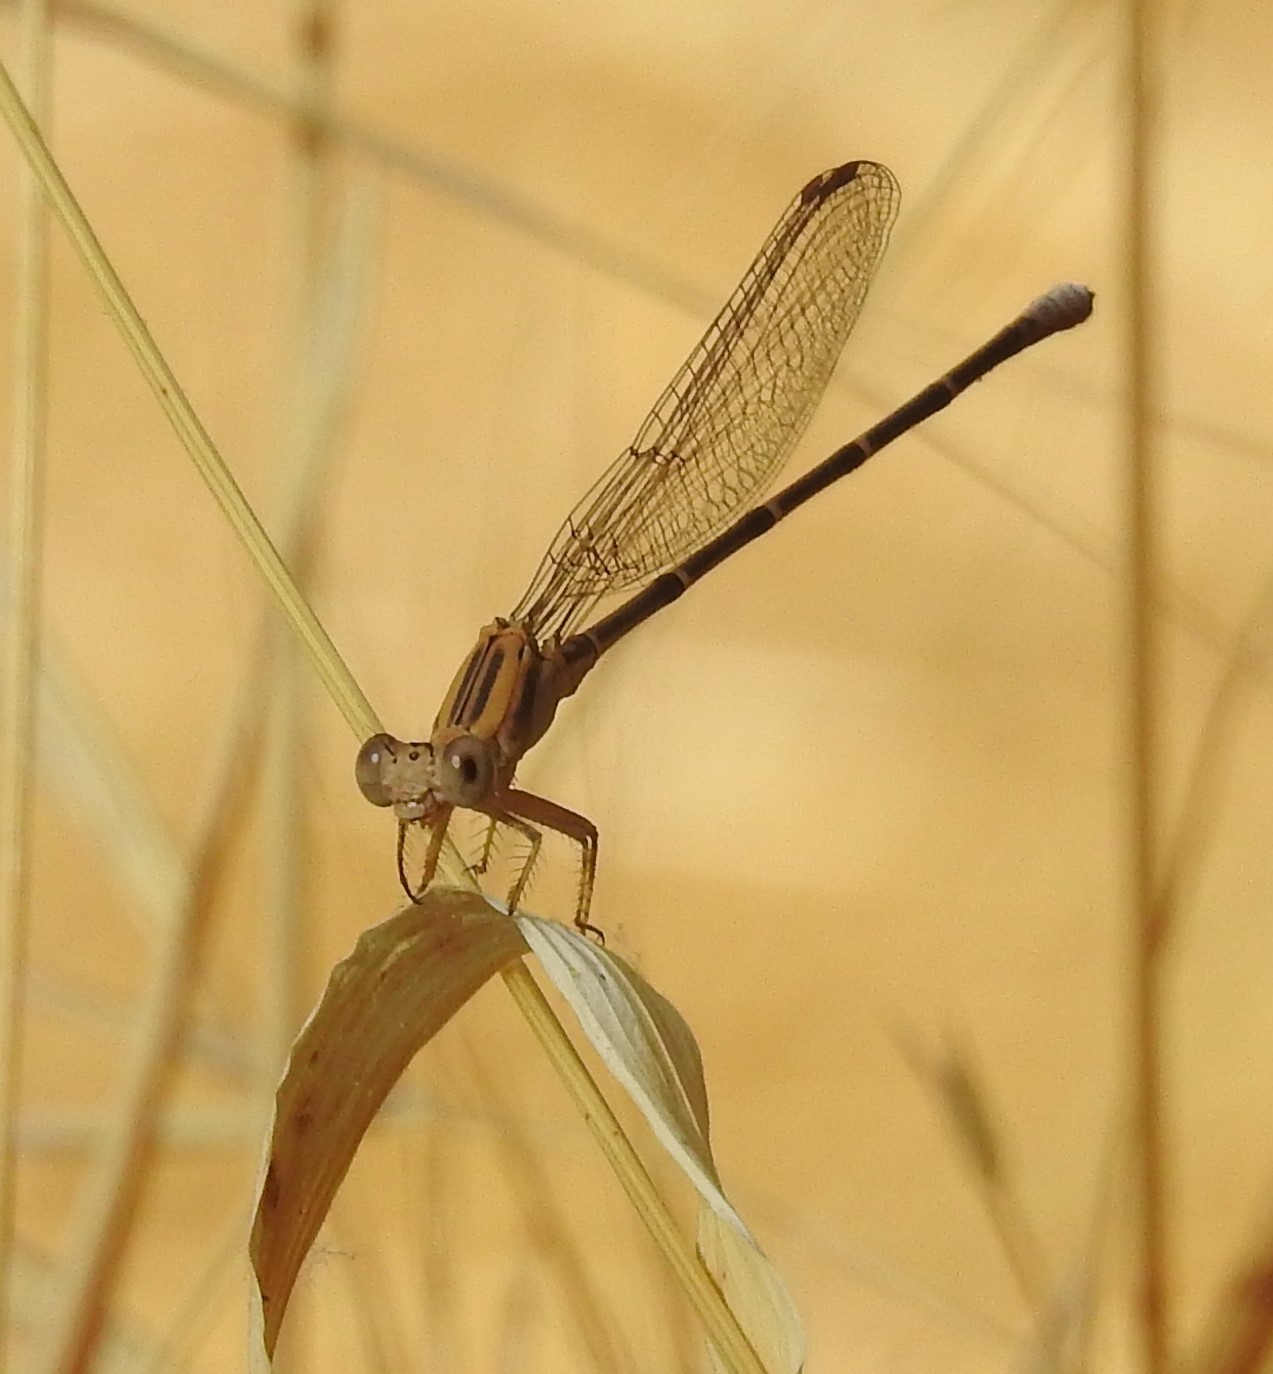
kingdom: Animalia
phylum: Arthropoda
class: Insecta
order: Odonata
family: Coenagrionidae
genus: Argia
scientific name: Argia moesta
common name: Powdered dancer
